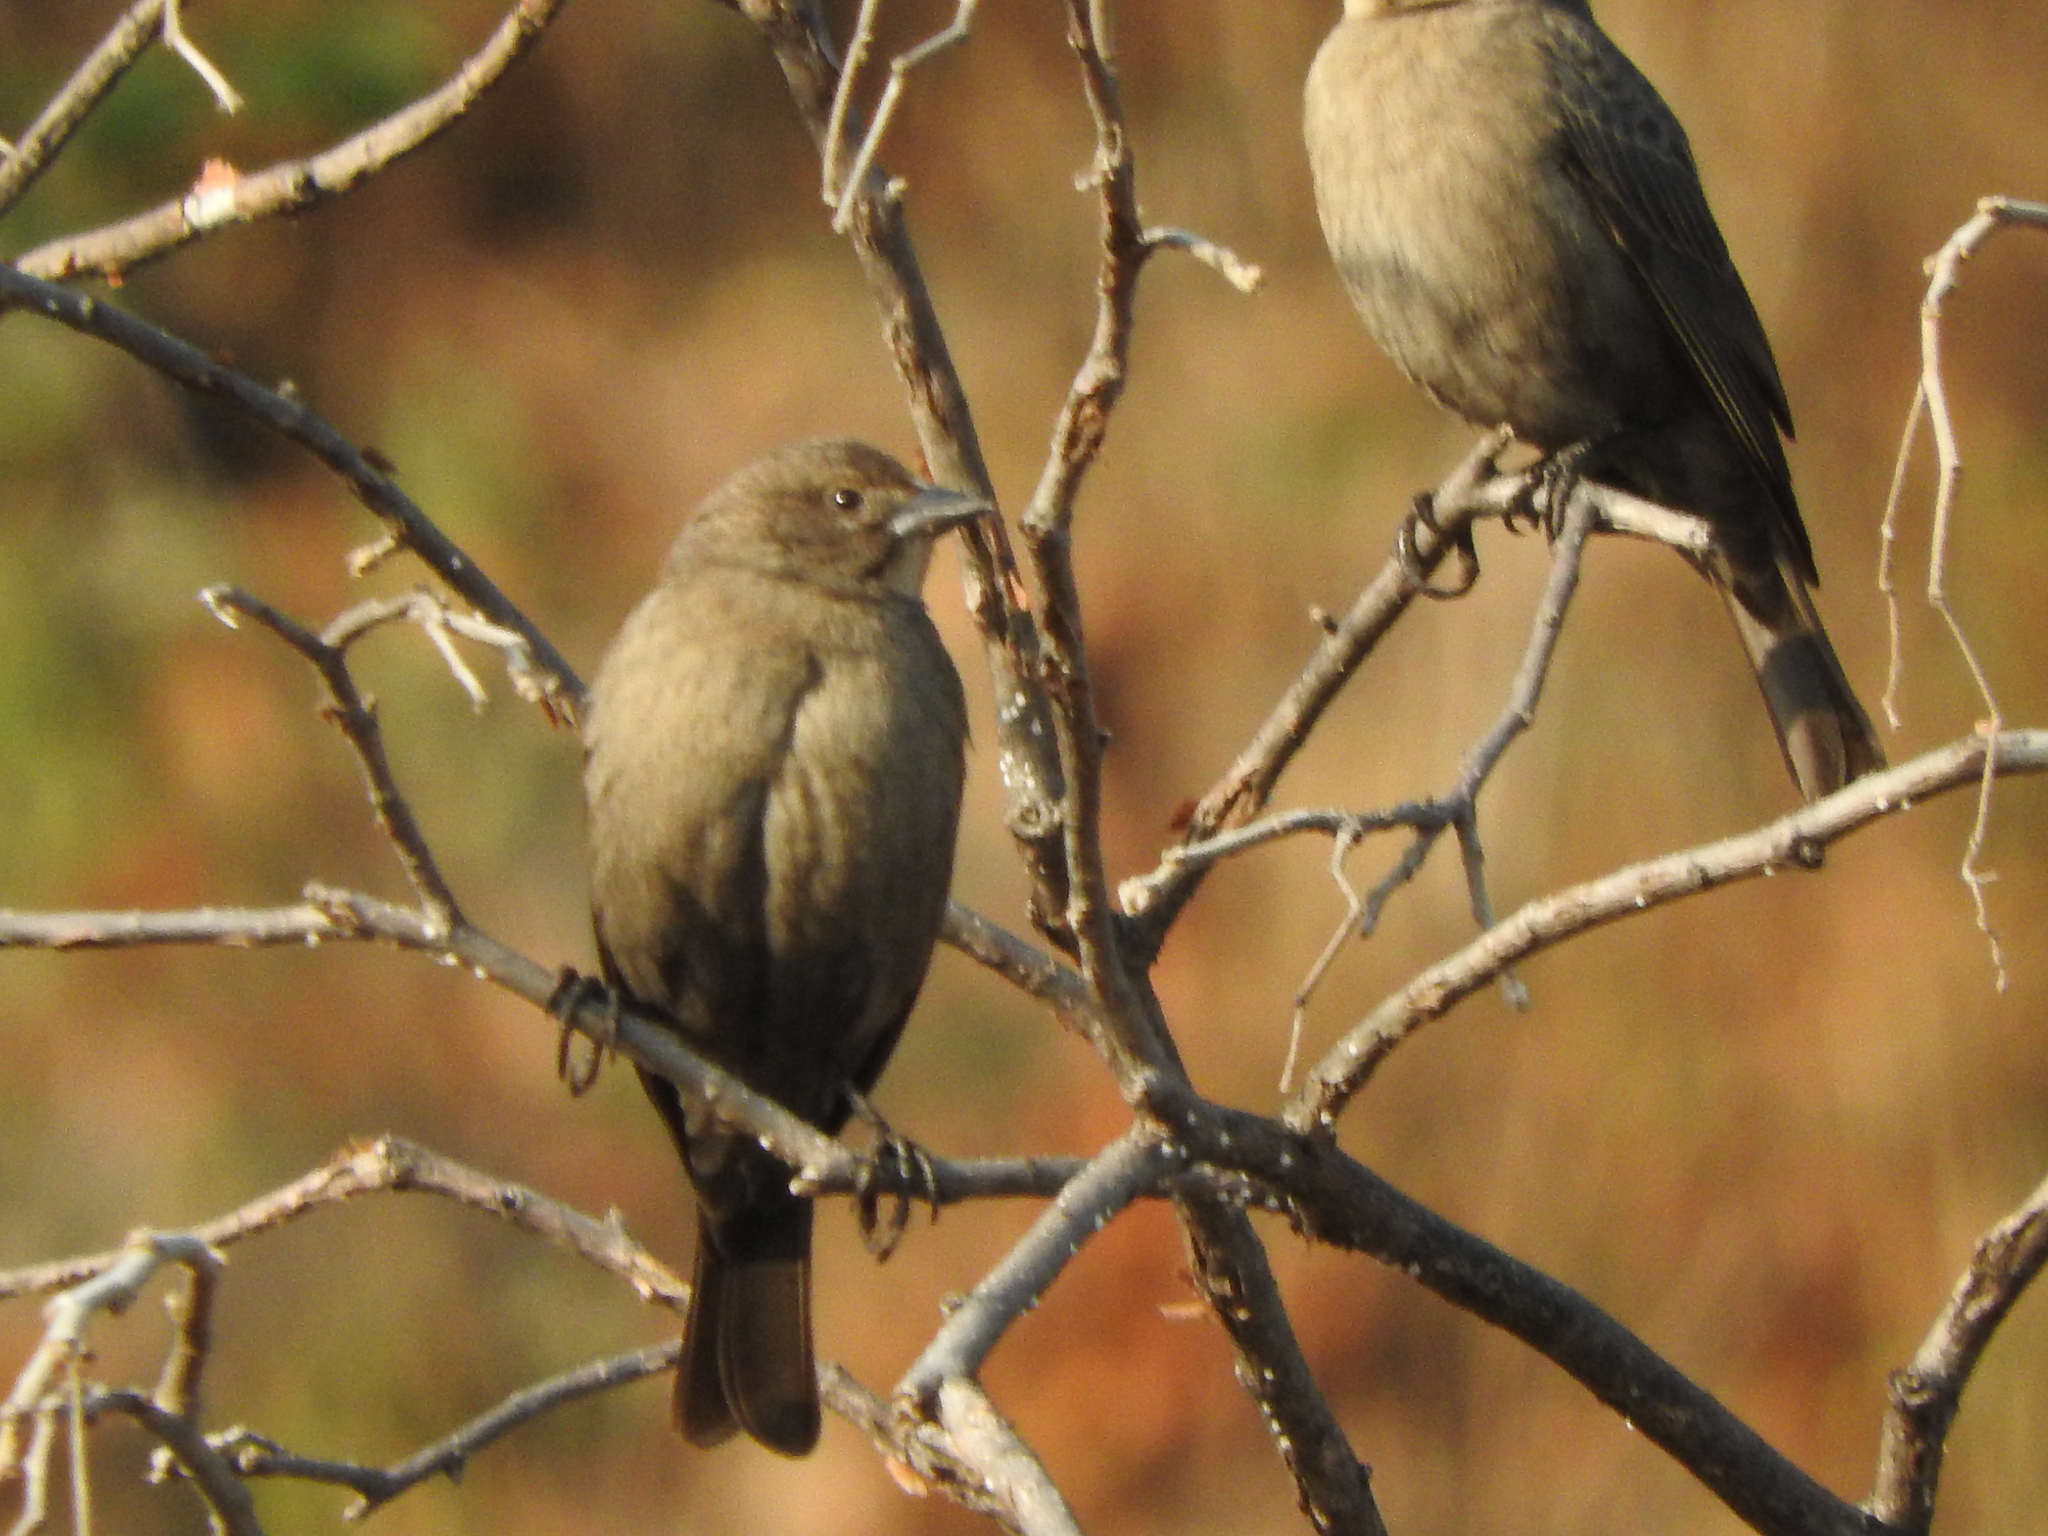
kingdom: Animalia
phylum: Chordata
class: Aves
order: Passeriformes
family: Icteridae
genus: Molothrus
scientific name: Molothrus ater
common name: Brown-headed cowbird
